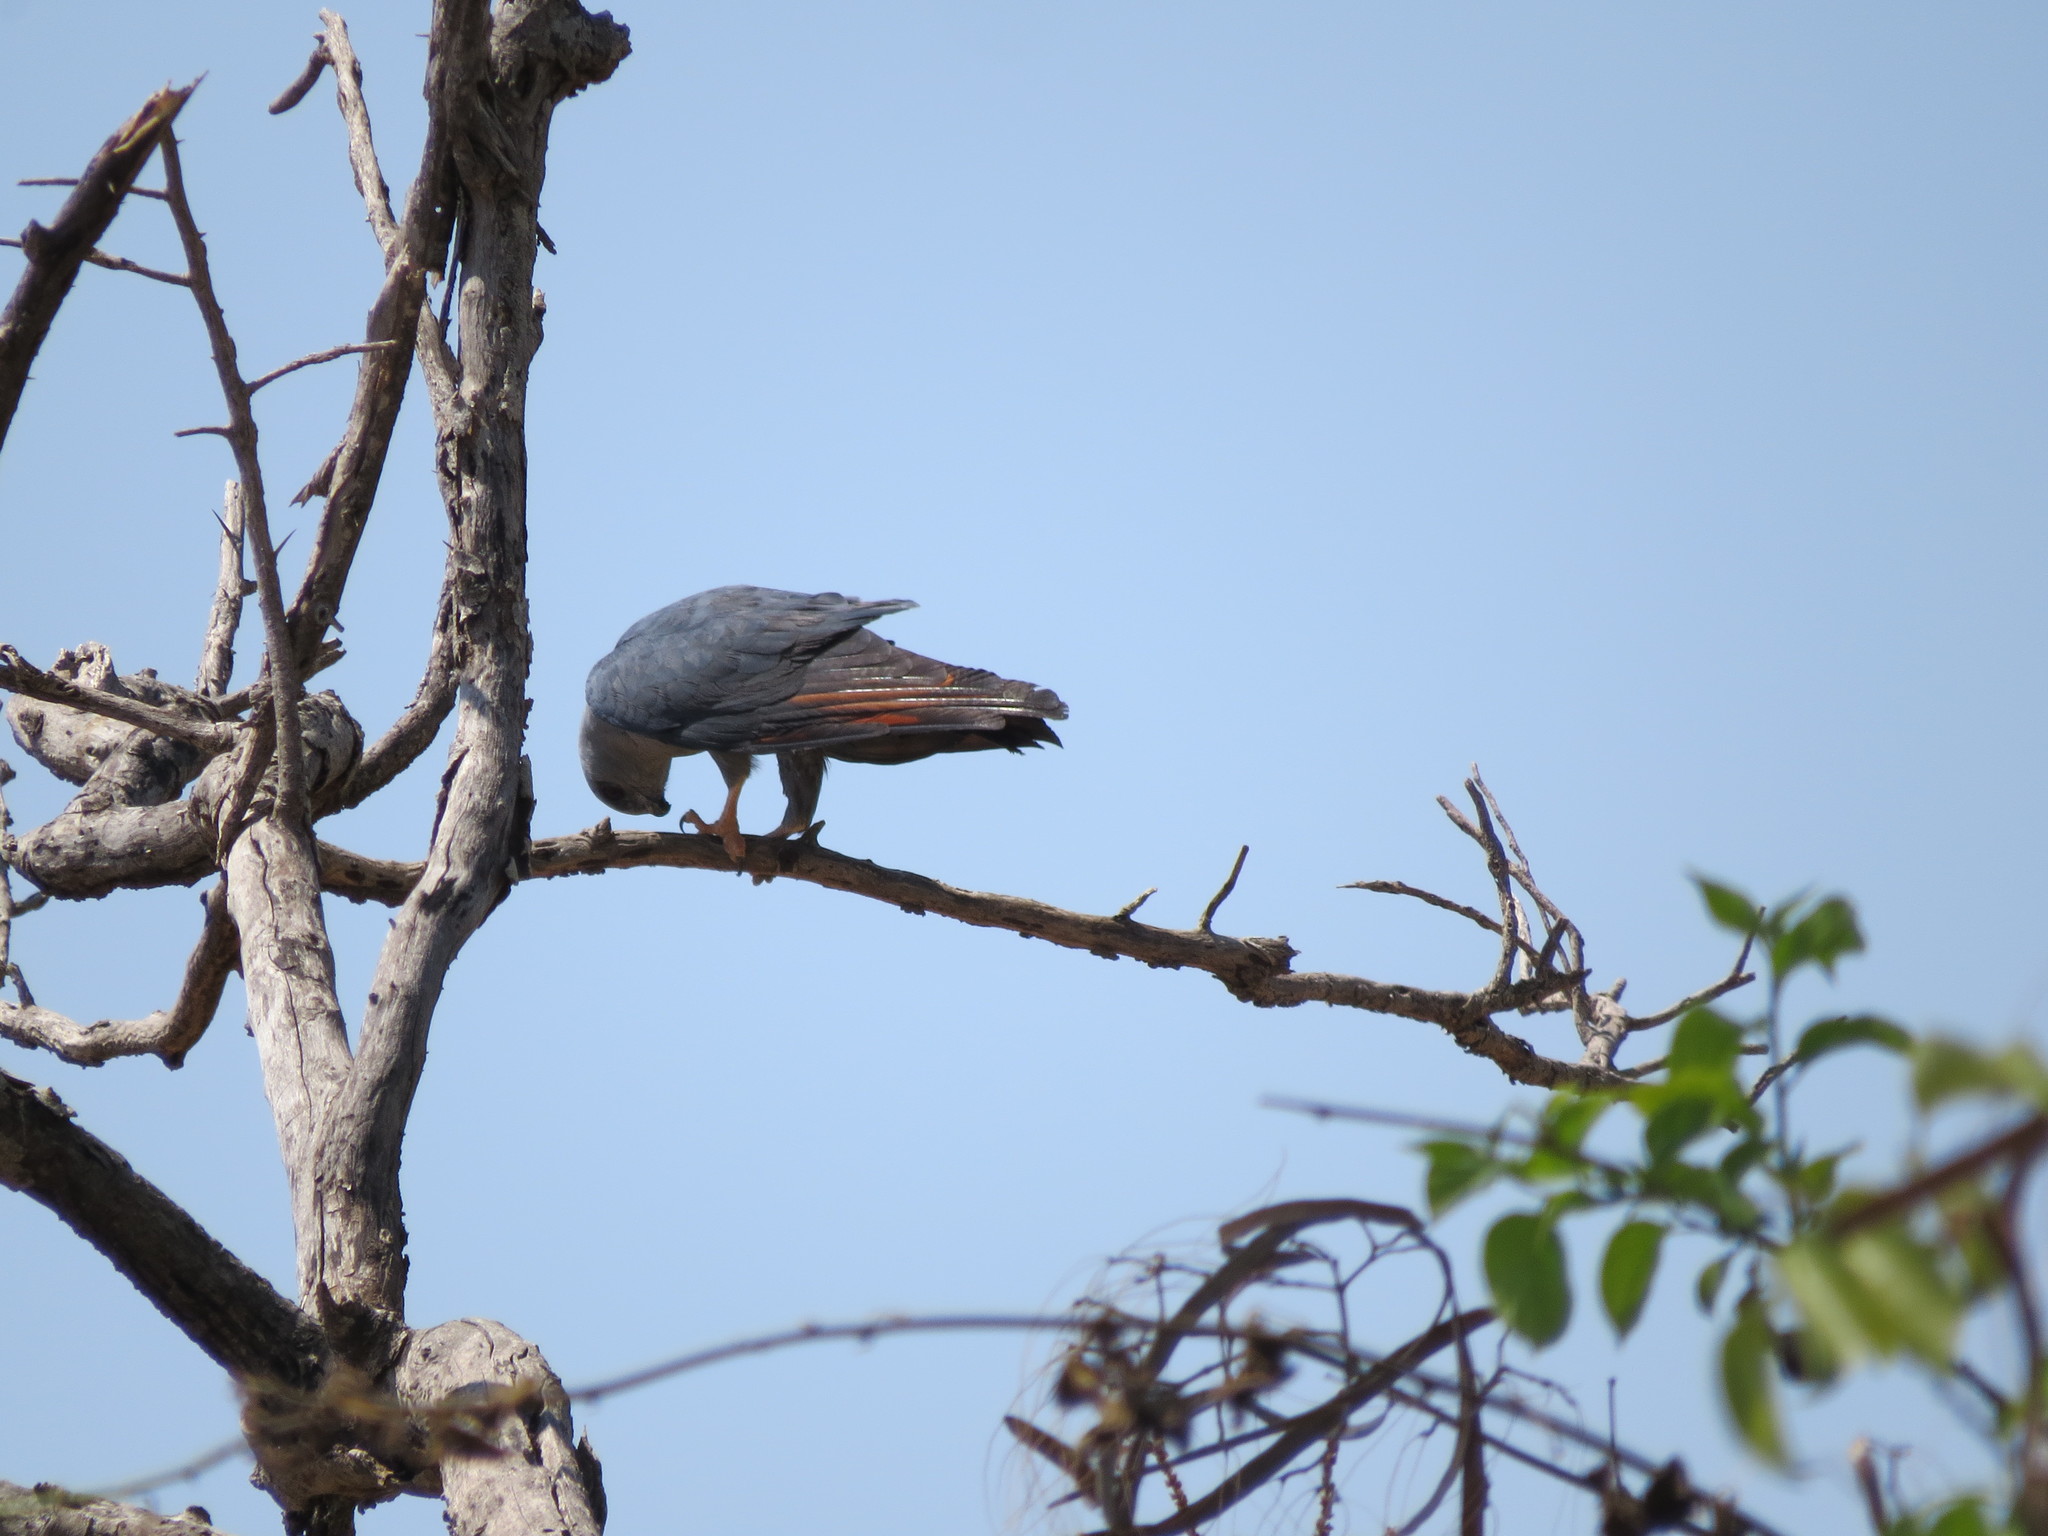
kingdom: Animalia
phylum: Chordata
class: Aves
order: Accipitriformes
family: Accipitridae
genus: Ictinia
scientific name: Ictinia plumbea
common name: Plumbeous kite
